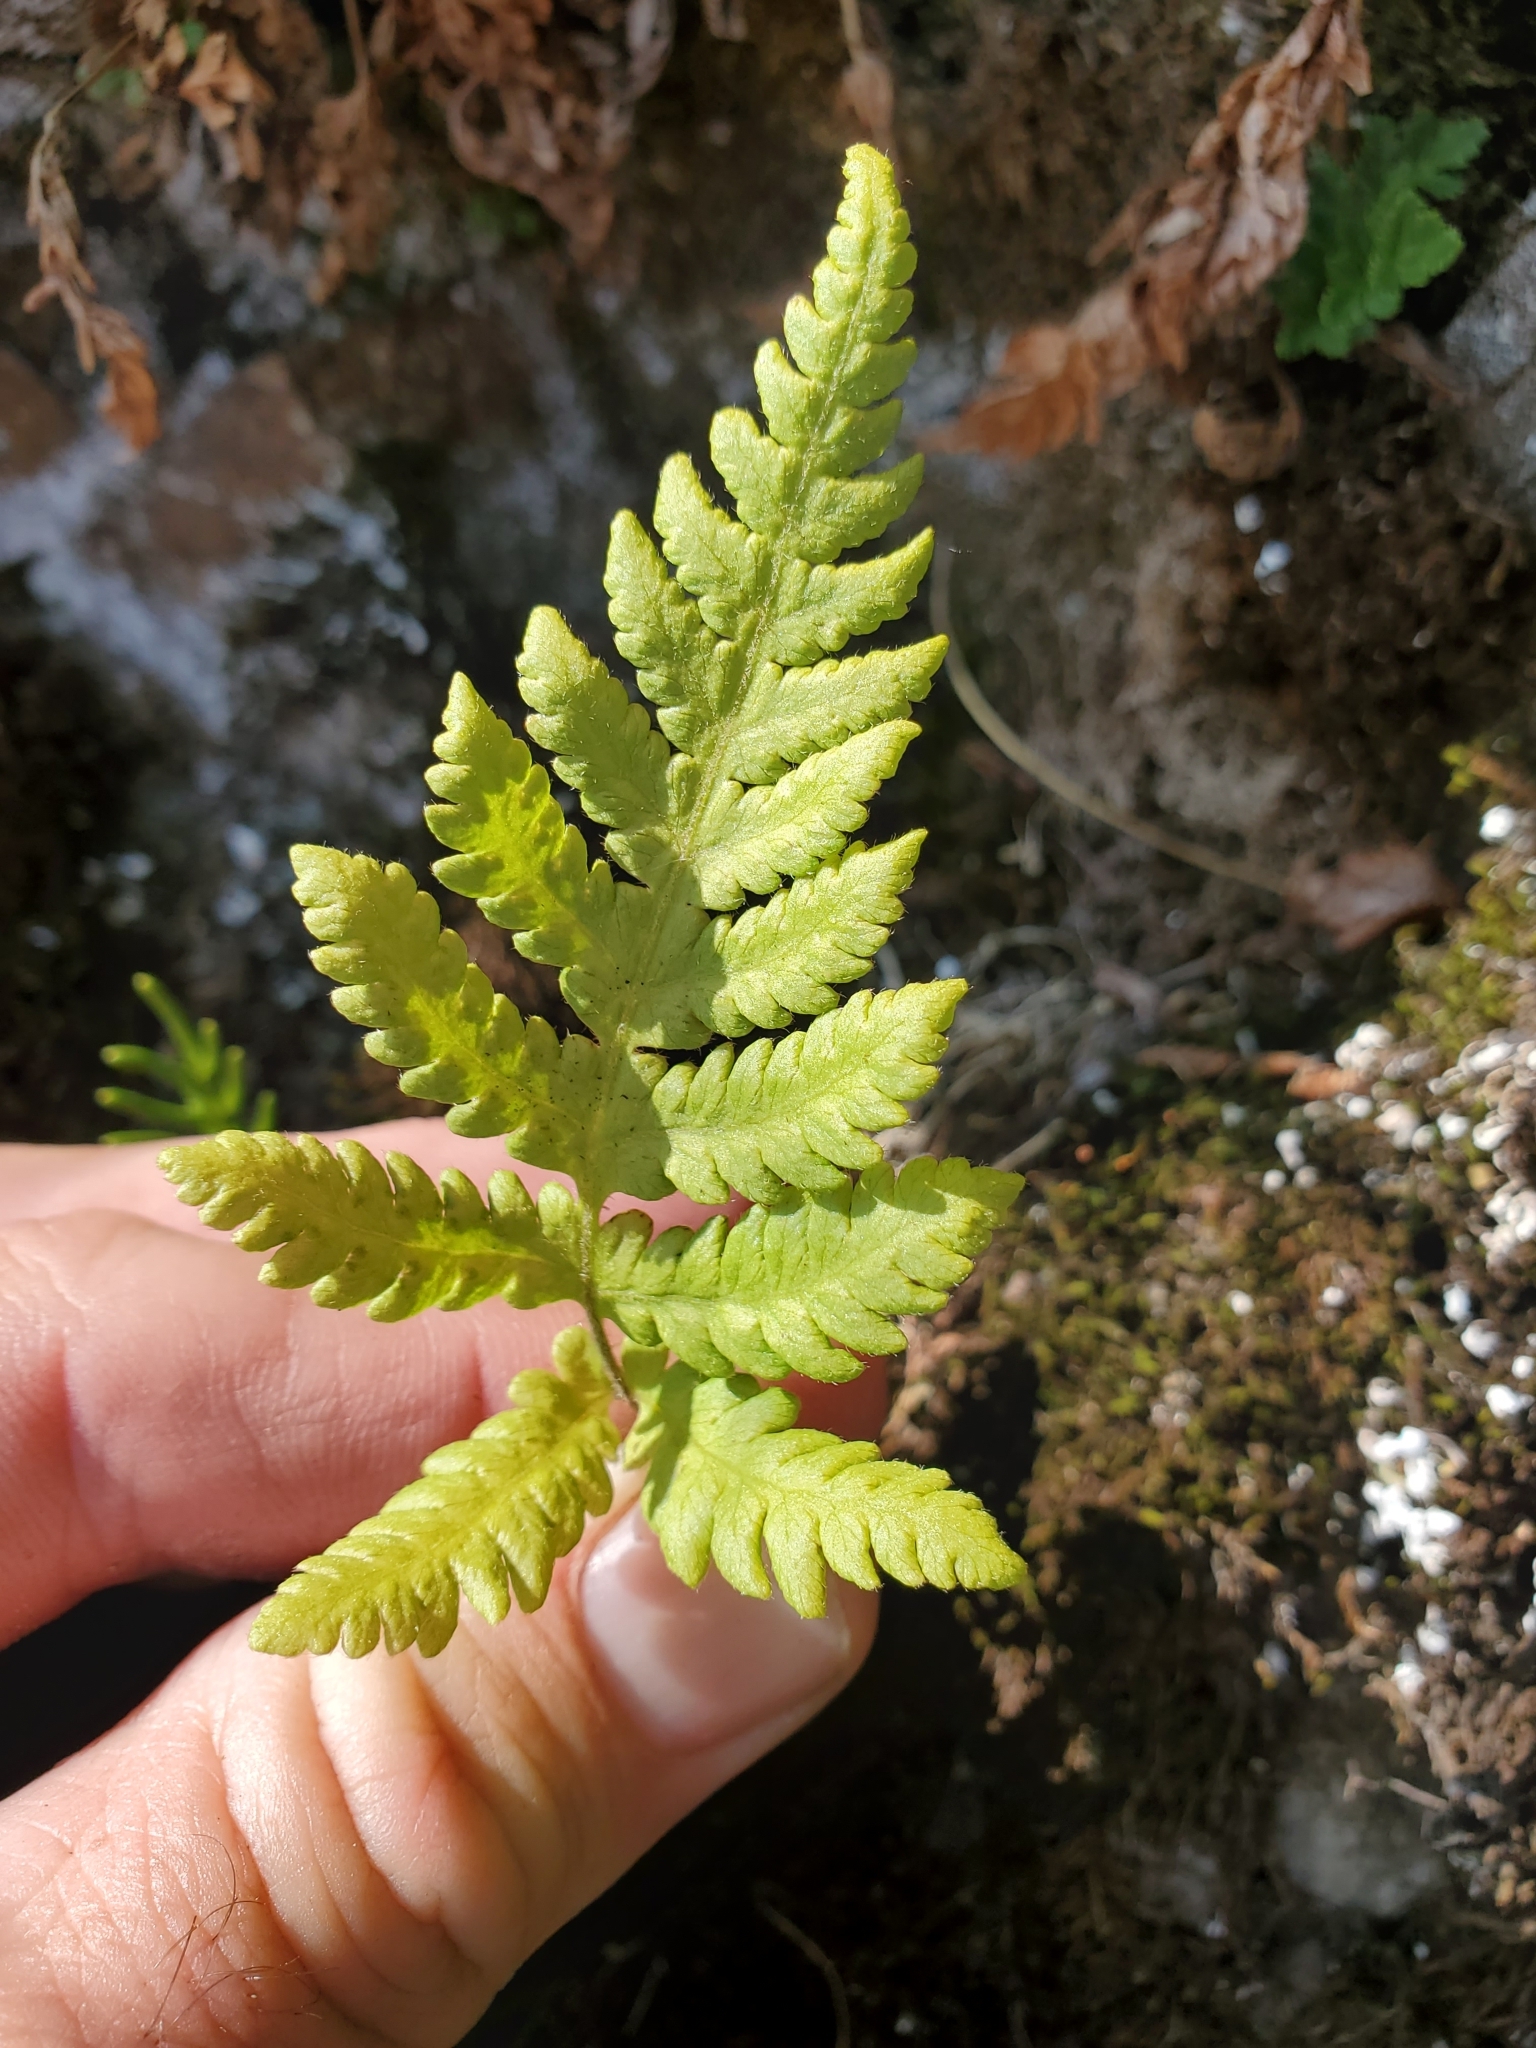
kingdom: Plantae
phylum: Tracheophyta
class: Polypodiopsida
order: Polypodiales
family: Thelypteridaceae
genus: Phegopteris
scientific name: Phegopteris connectilis
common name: Beech fern
